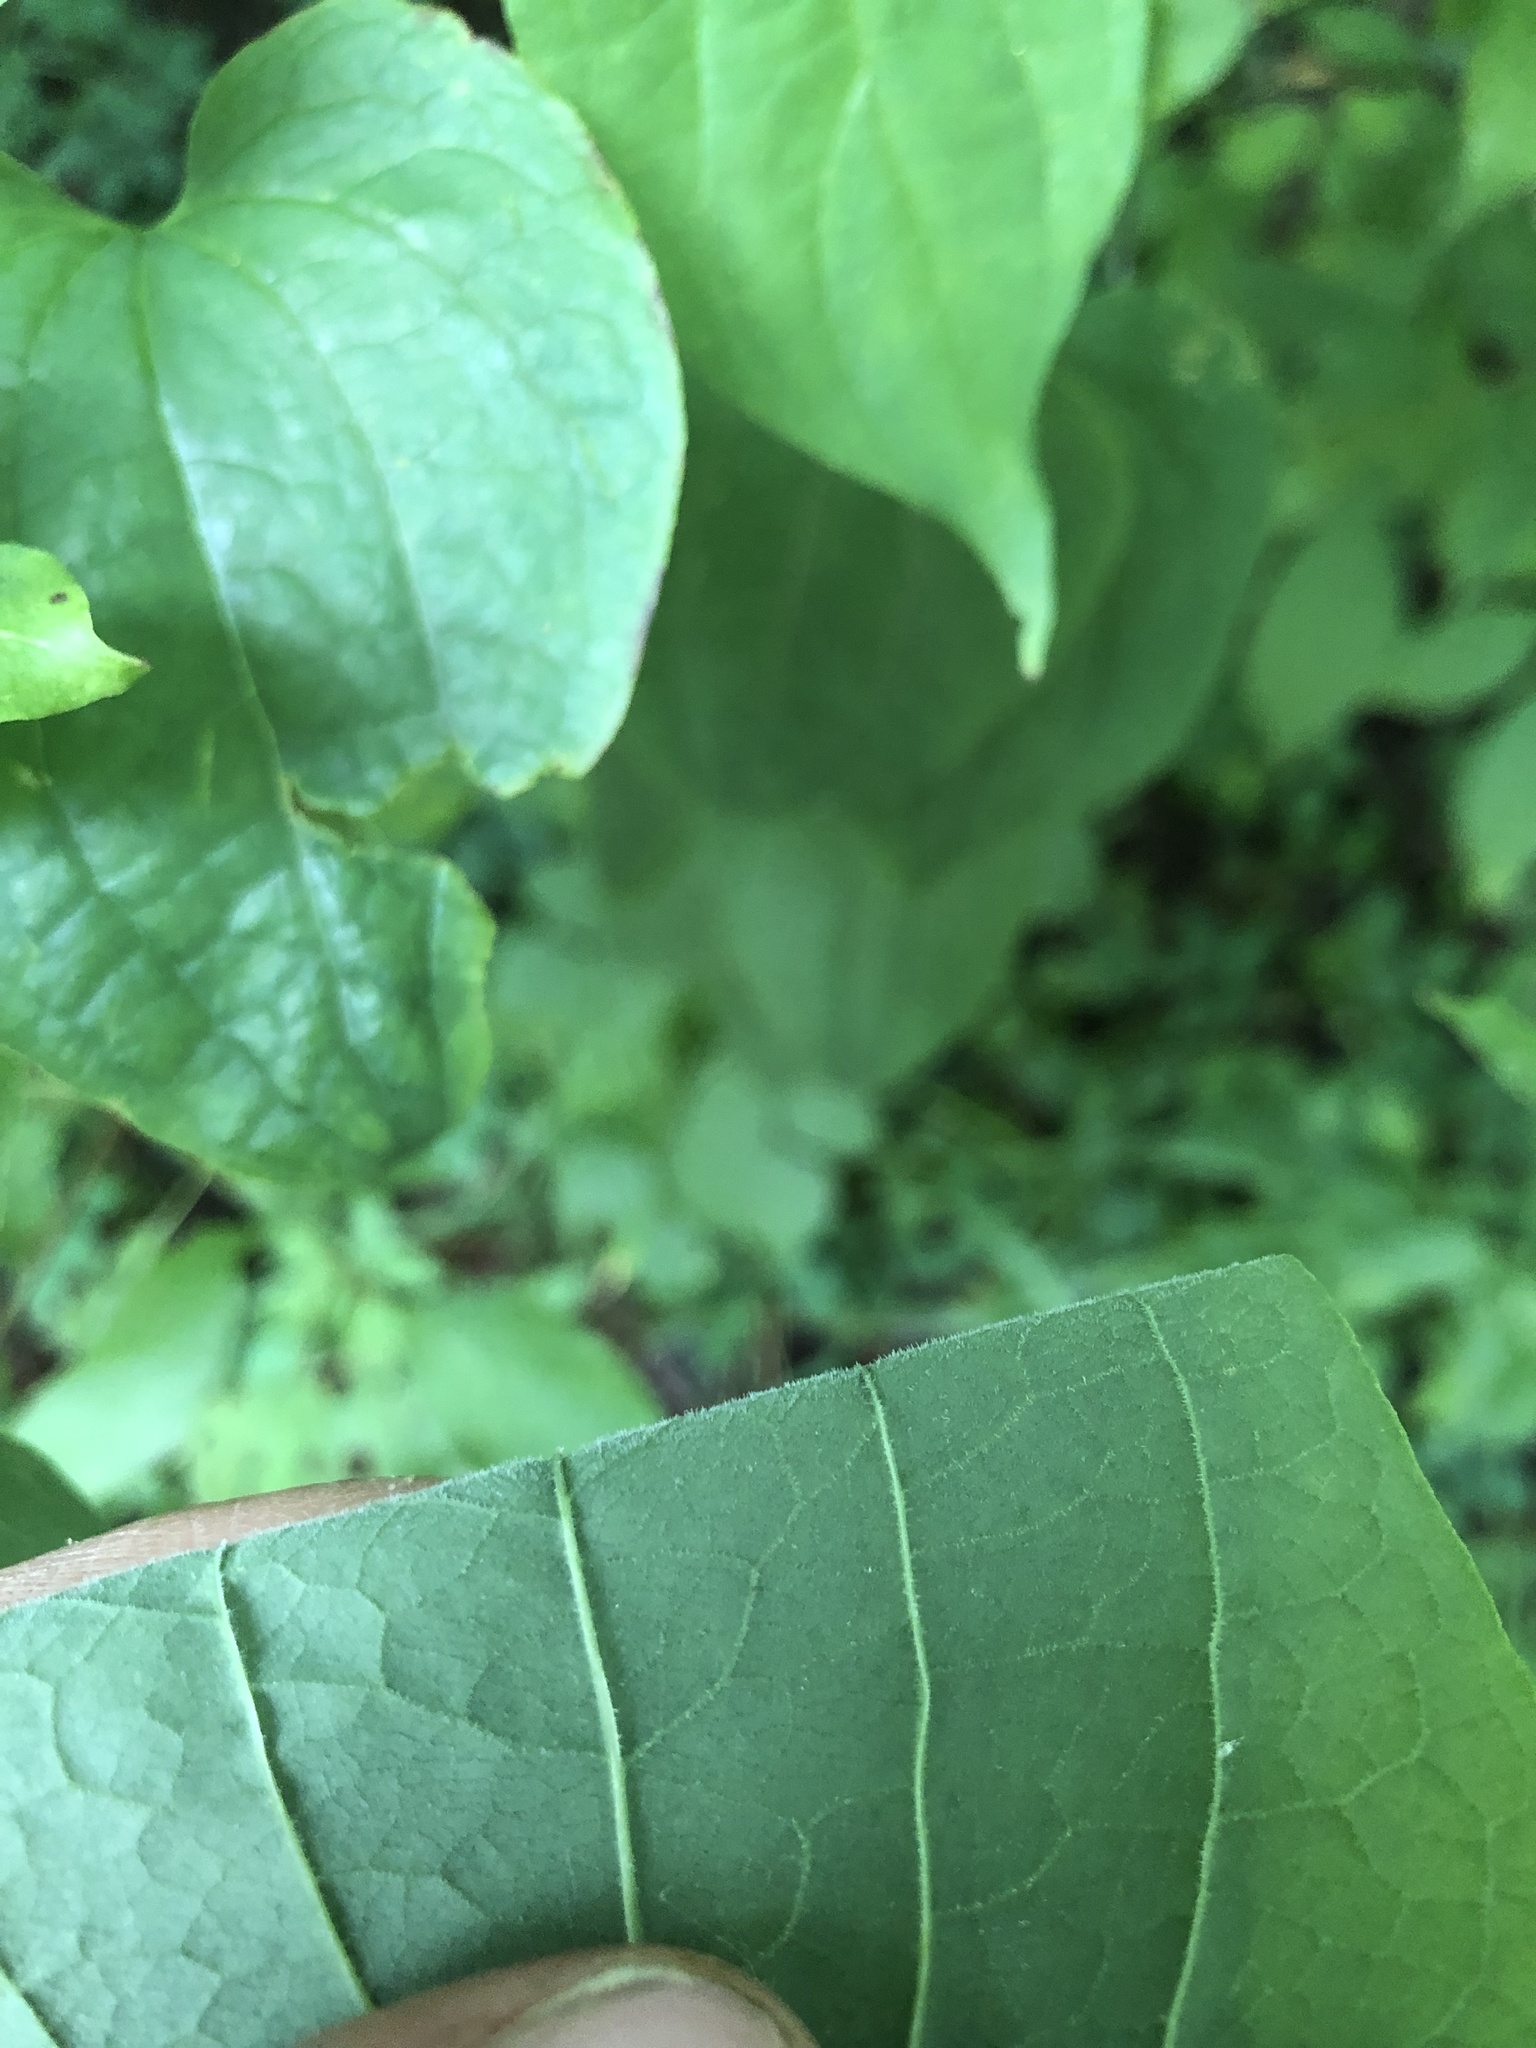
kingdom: Plantae
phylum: Tracheophyta
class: Liliopsida
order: Liliales
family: Smilacaceae
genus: Smilax
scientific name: Smilax lasioneura
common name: Blue ridge carrionflower
